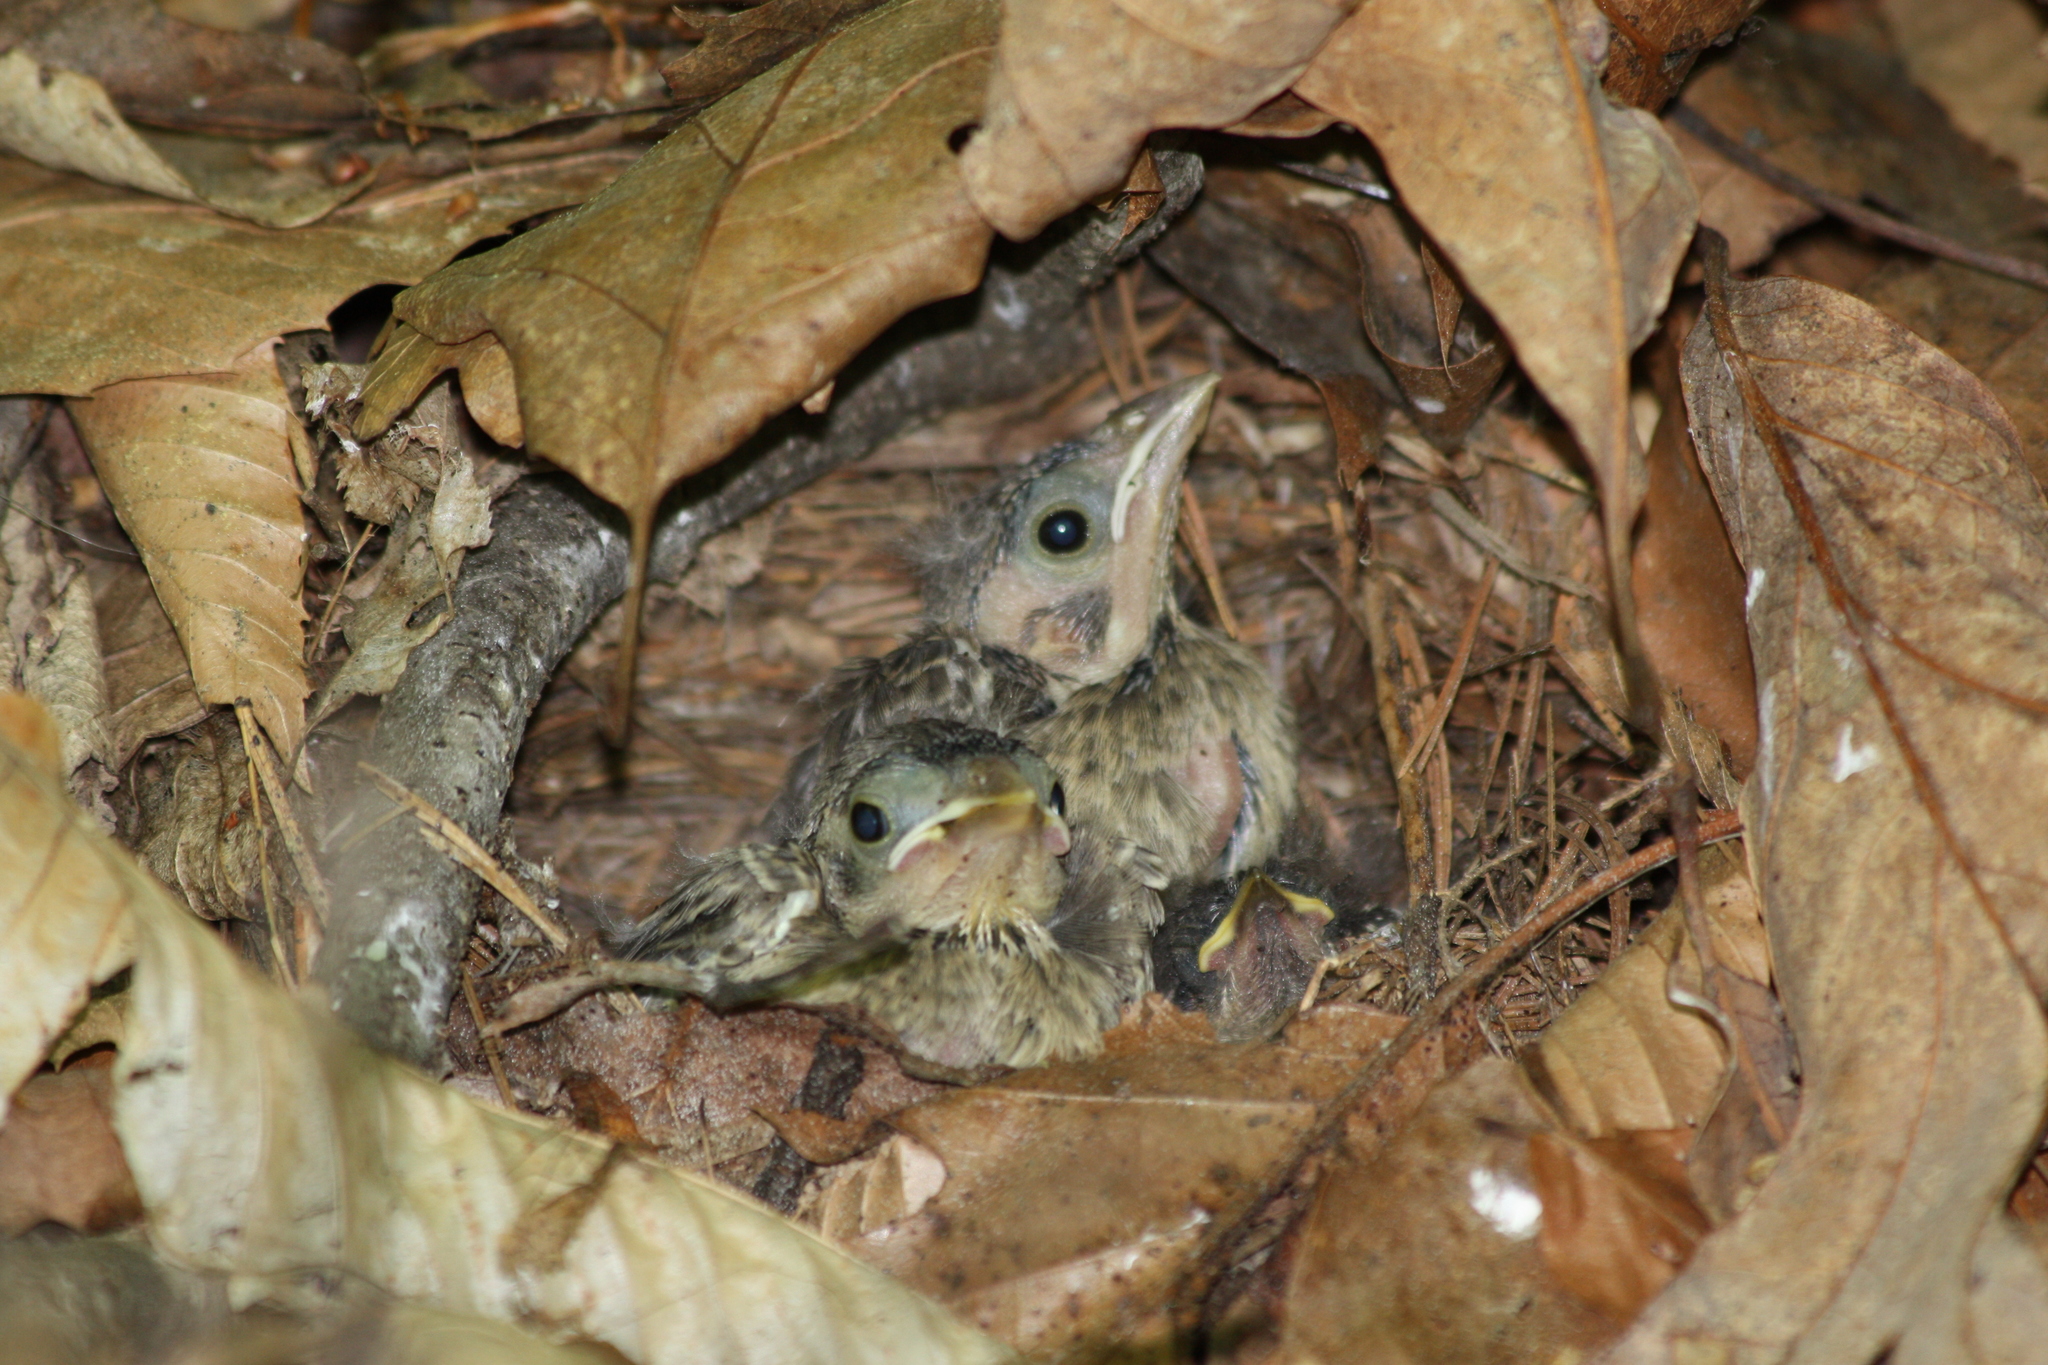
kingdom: Animalia
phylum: Chordata
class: Aves
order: Passeriformes
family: Icteridae
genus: Molothrus
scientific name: Molothrus ater
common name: Brown-headed cowbird
